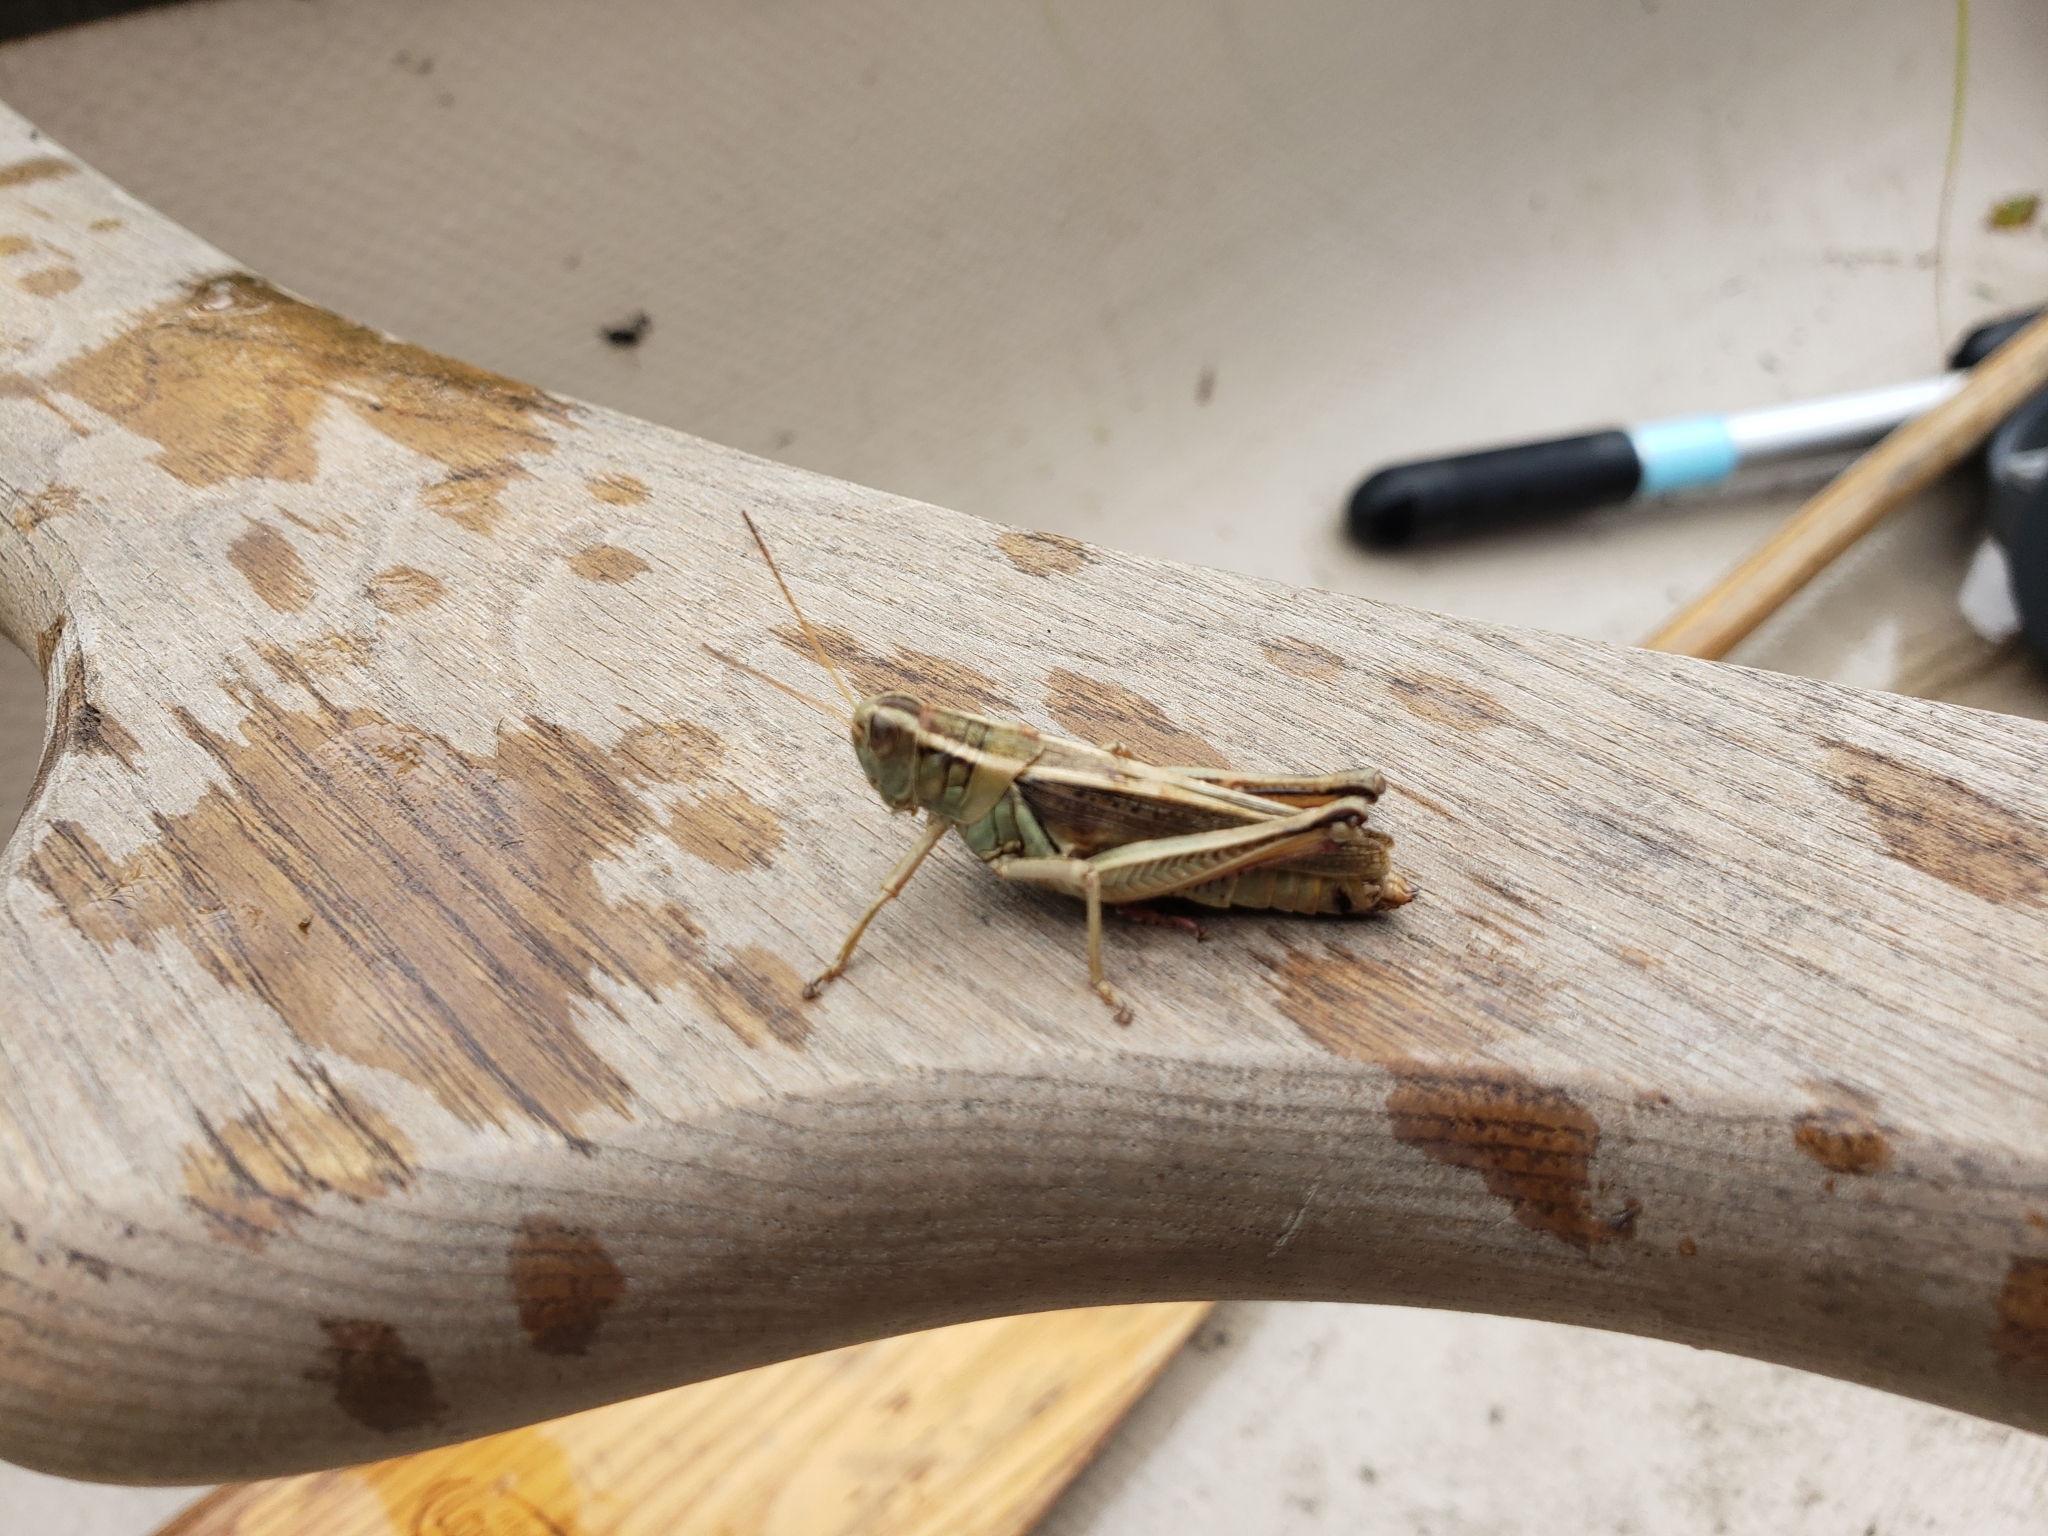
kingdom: Animalia
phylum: Arthropoda
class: Insecta
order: Orthoptera
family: Acrididae
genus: Melanoplus
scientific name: Melanoplus bivittatus
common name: Two-striped grasshopper
